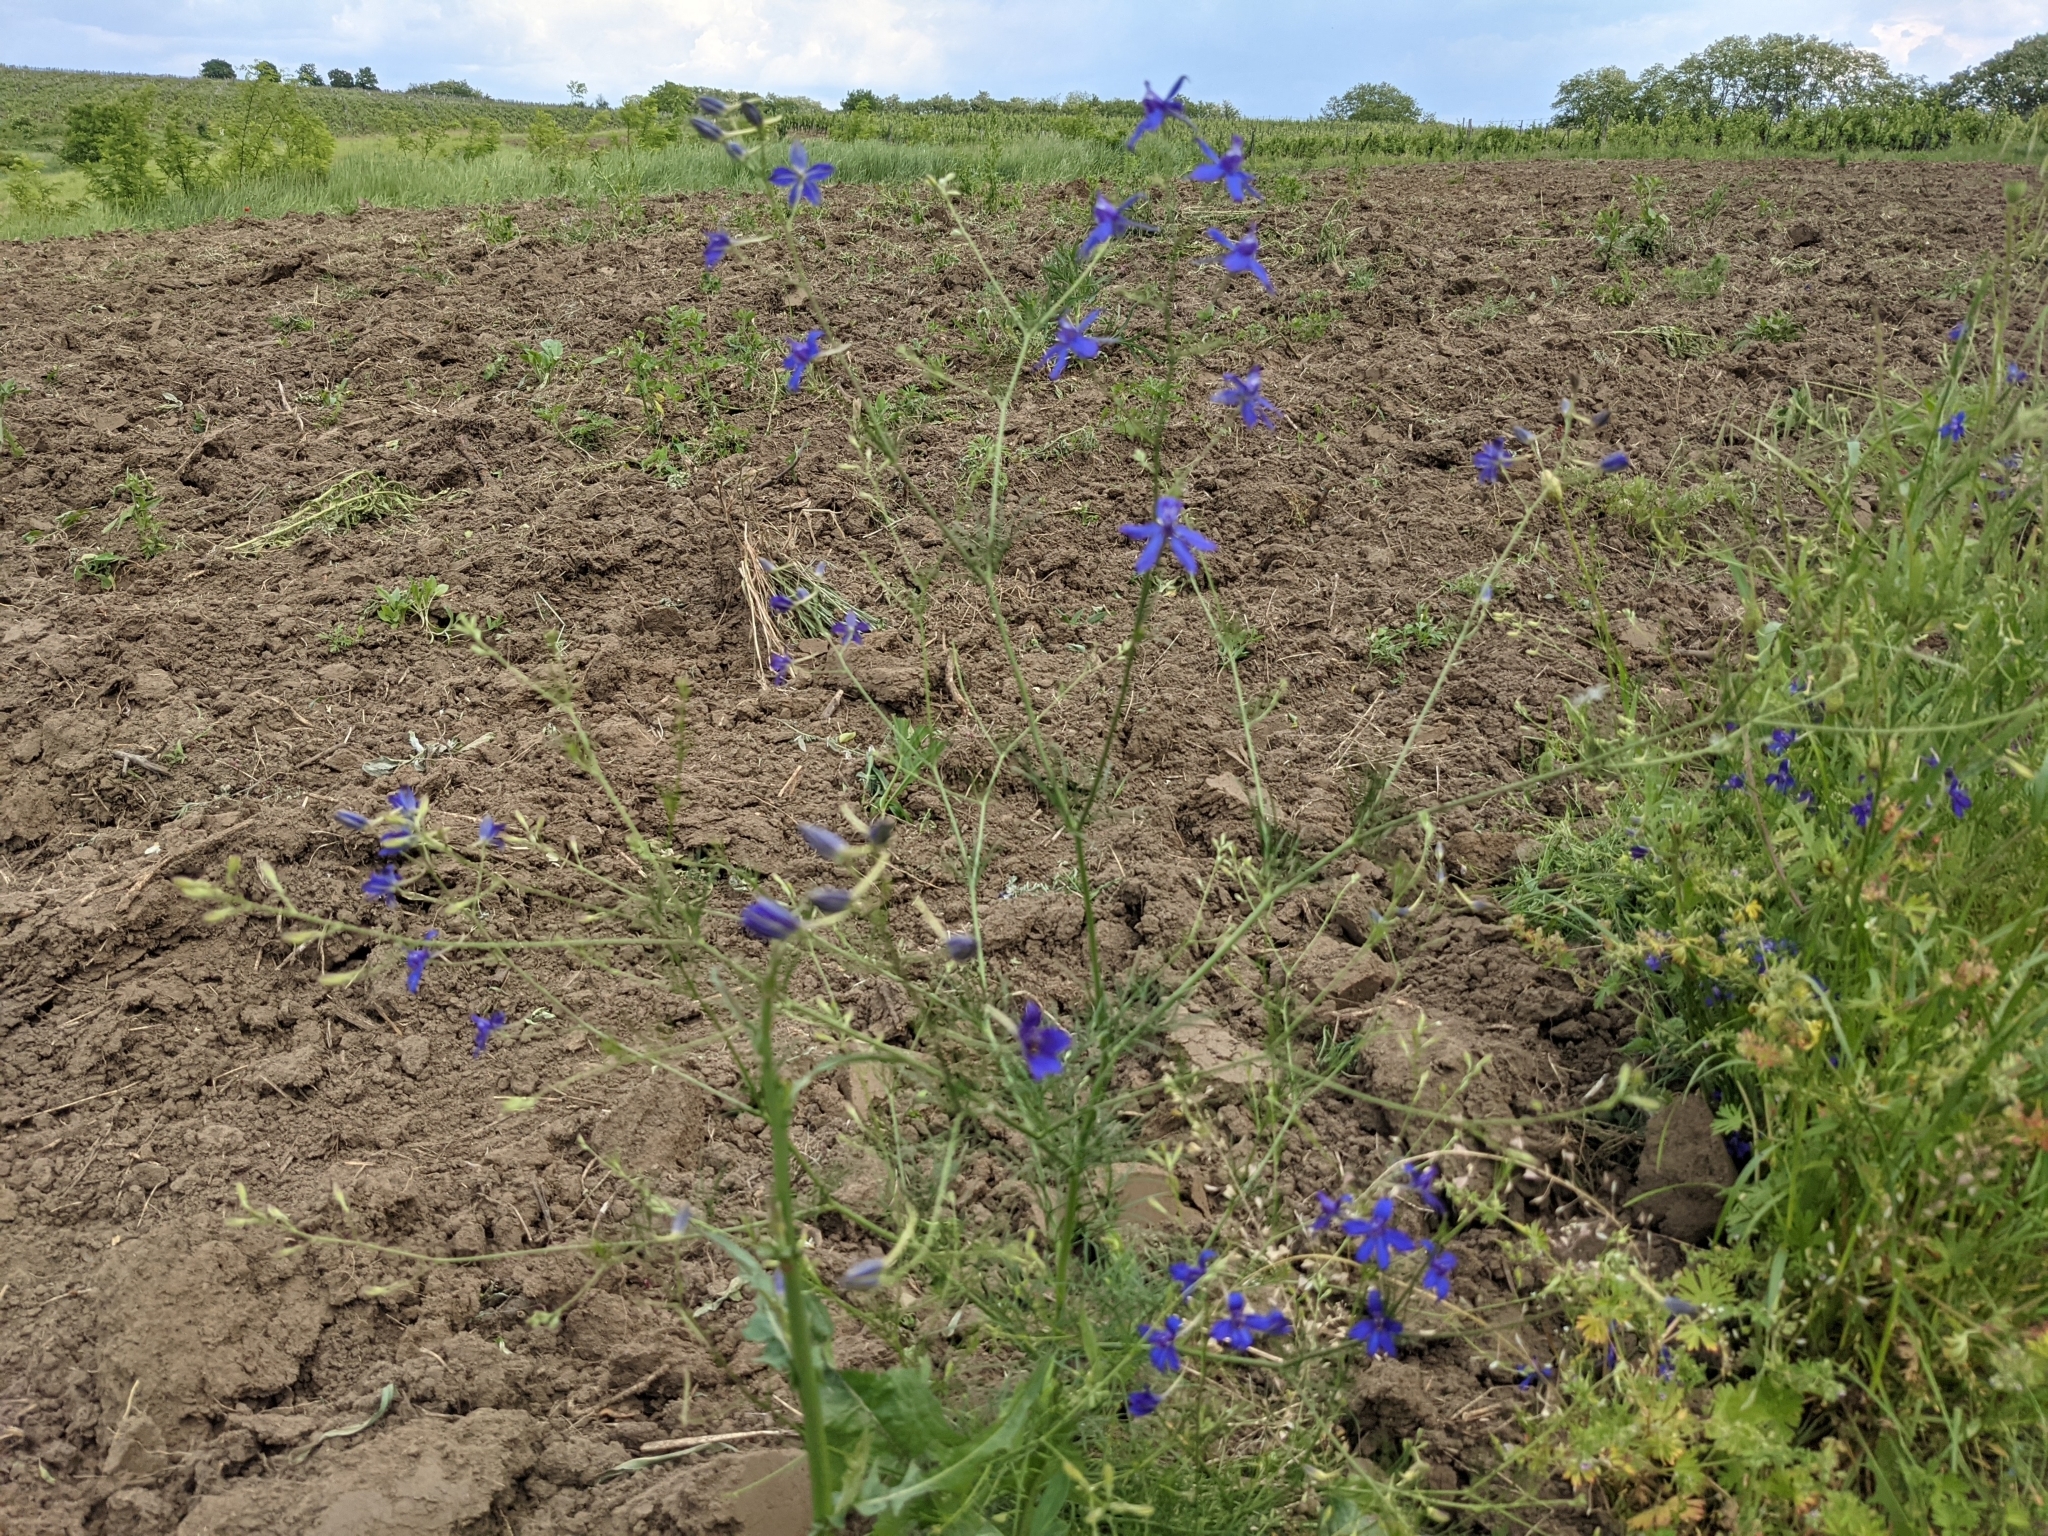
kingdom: Plantae
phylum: Tracheophyta
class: Magnoliopsida
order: Ranunculales
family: Ranunculaceae
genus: Delphinium
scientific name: Delphinium consolida
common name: Branching larkspur
